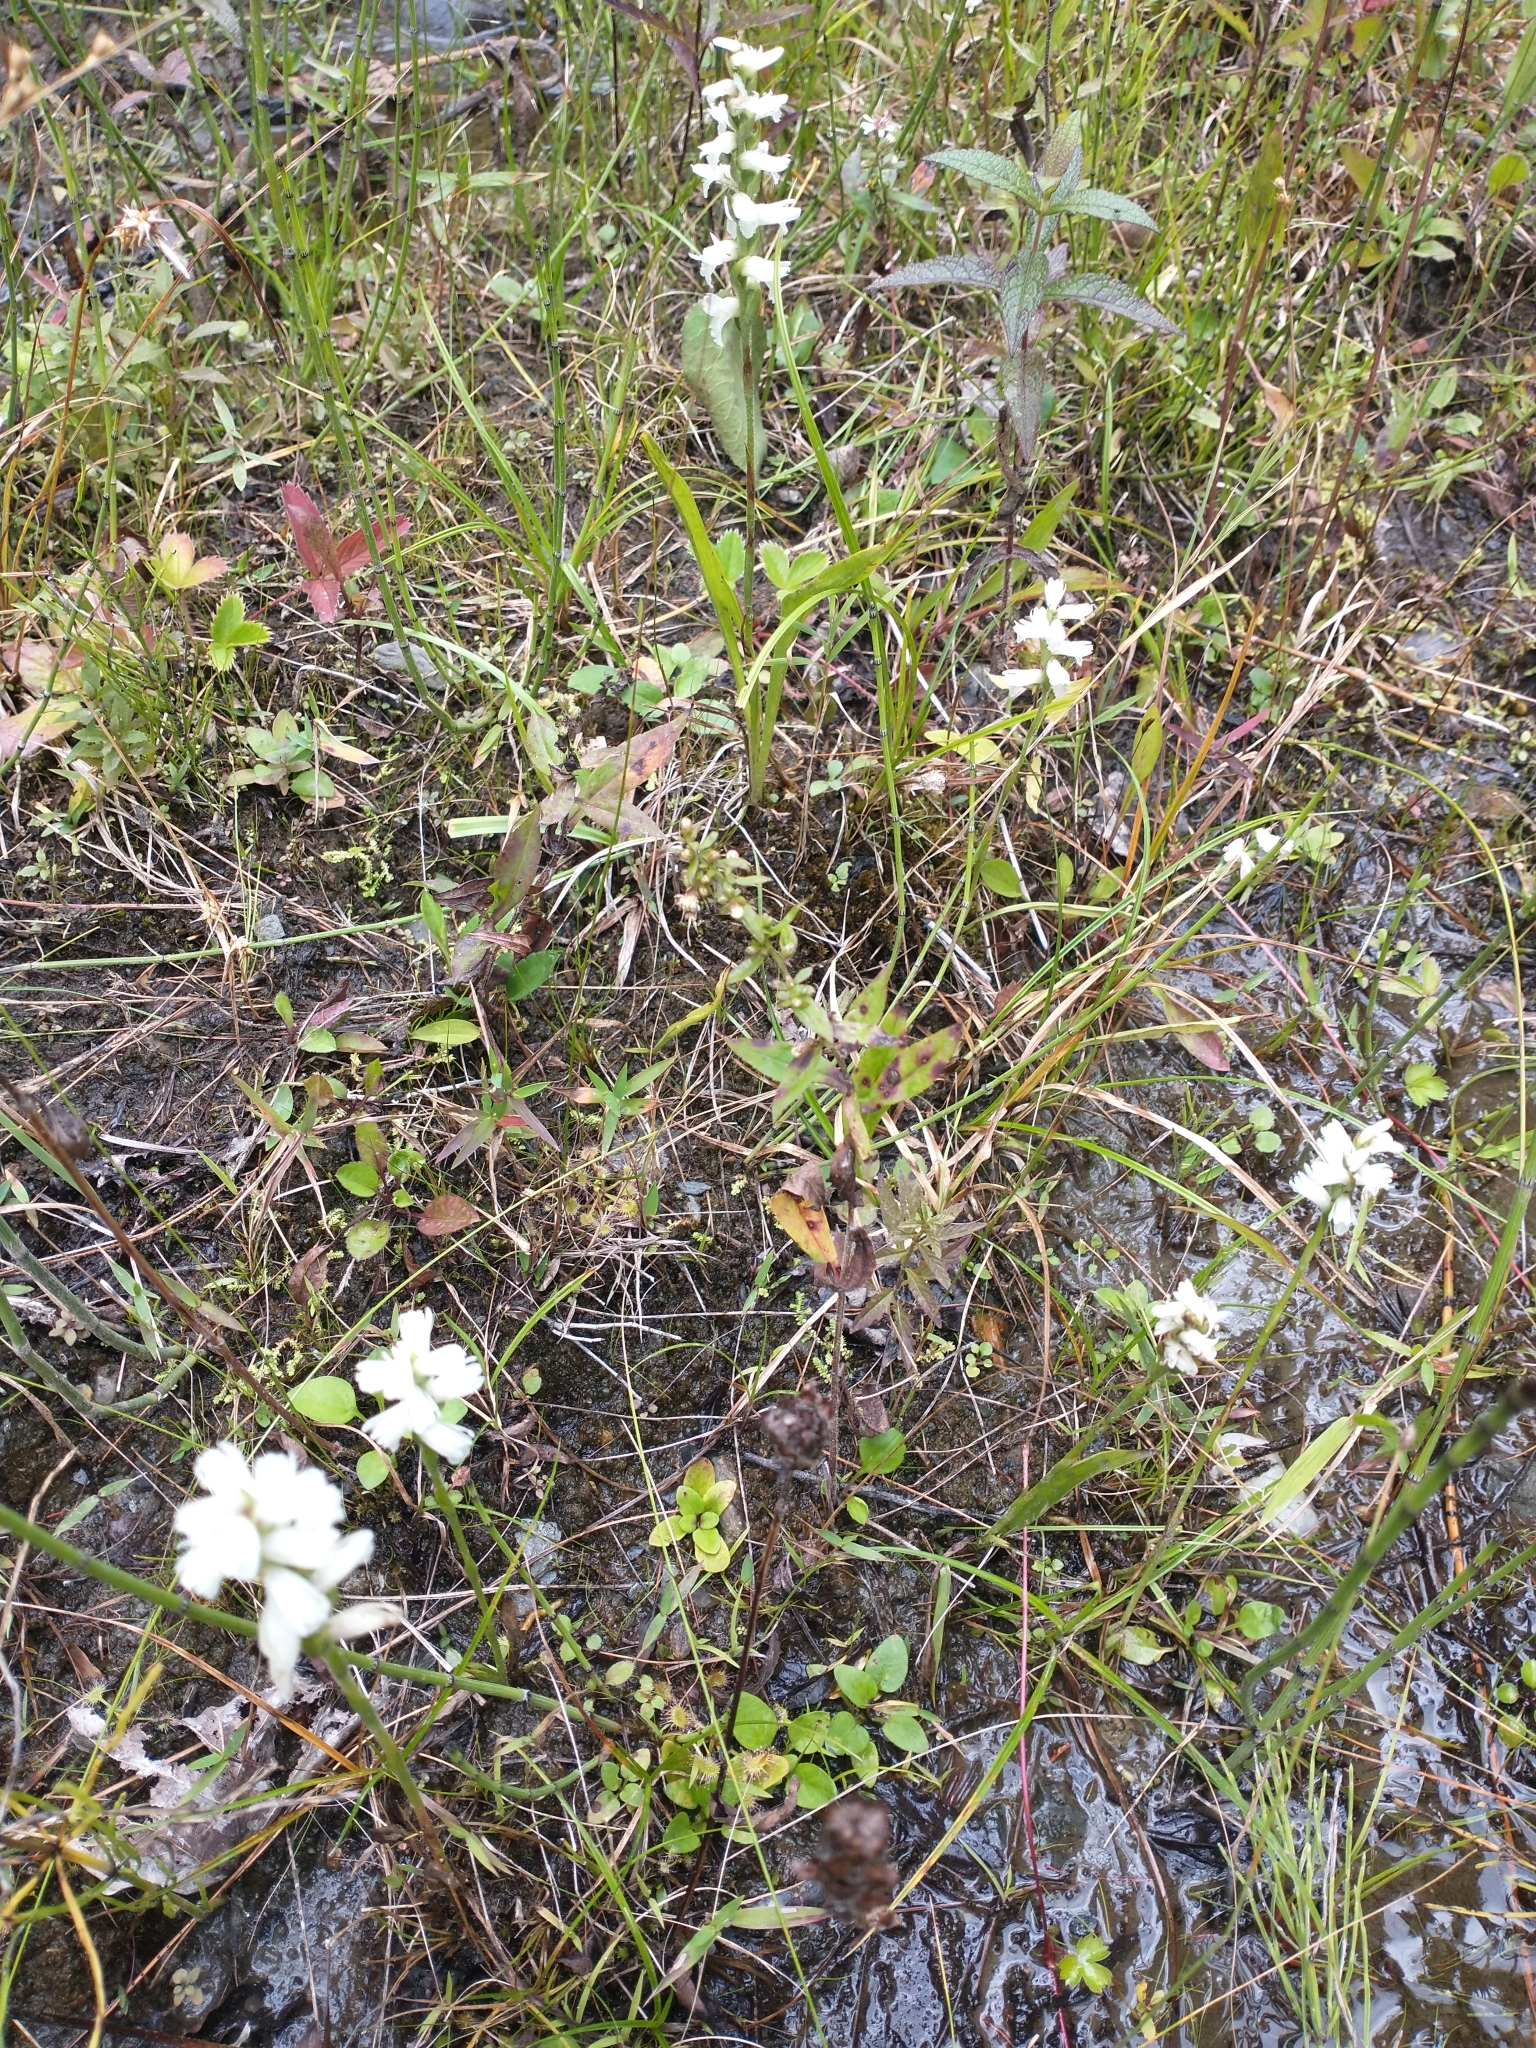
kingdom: Plantae
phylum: Tracheophyta
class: Liliopsida
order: Asparagales
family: Orchidaceae
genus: Spiranthes
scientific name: Spiranthes incurva
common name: Sphinx ladies'-tresses
